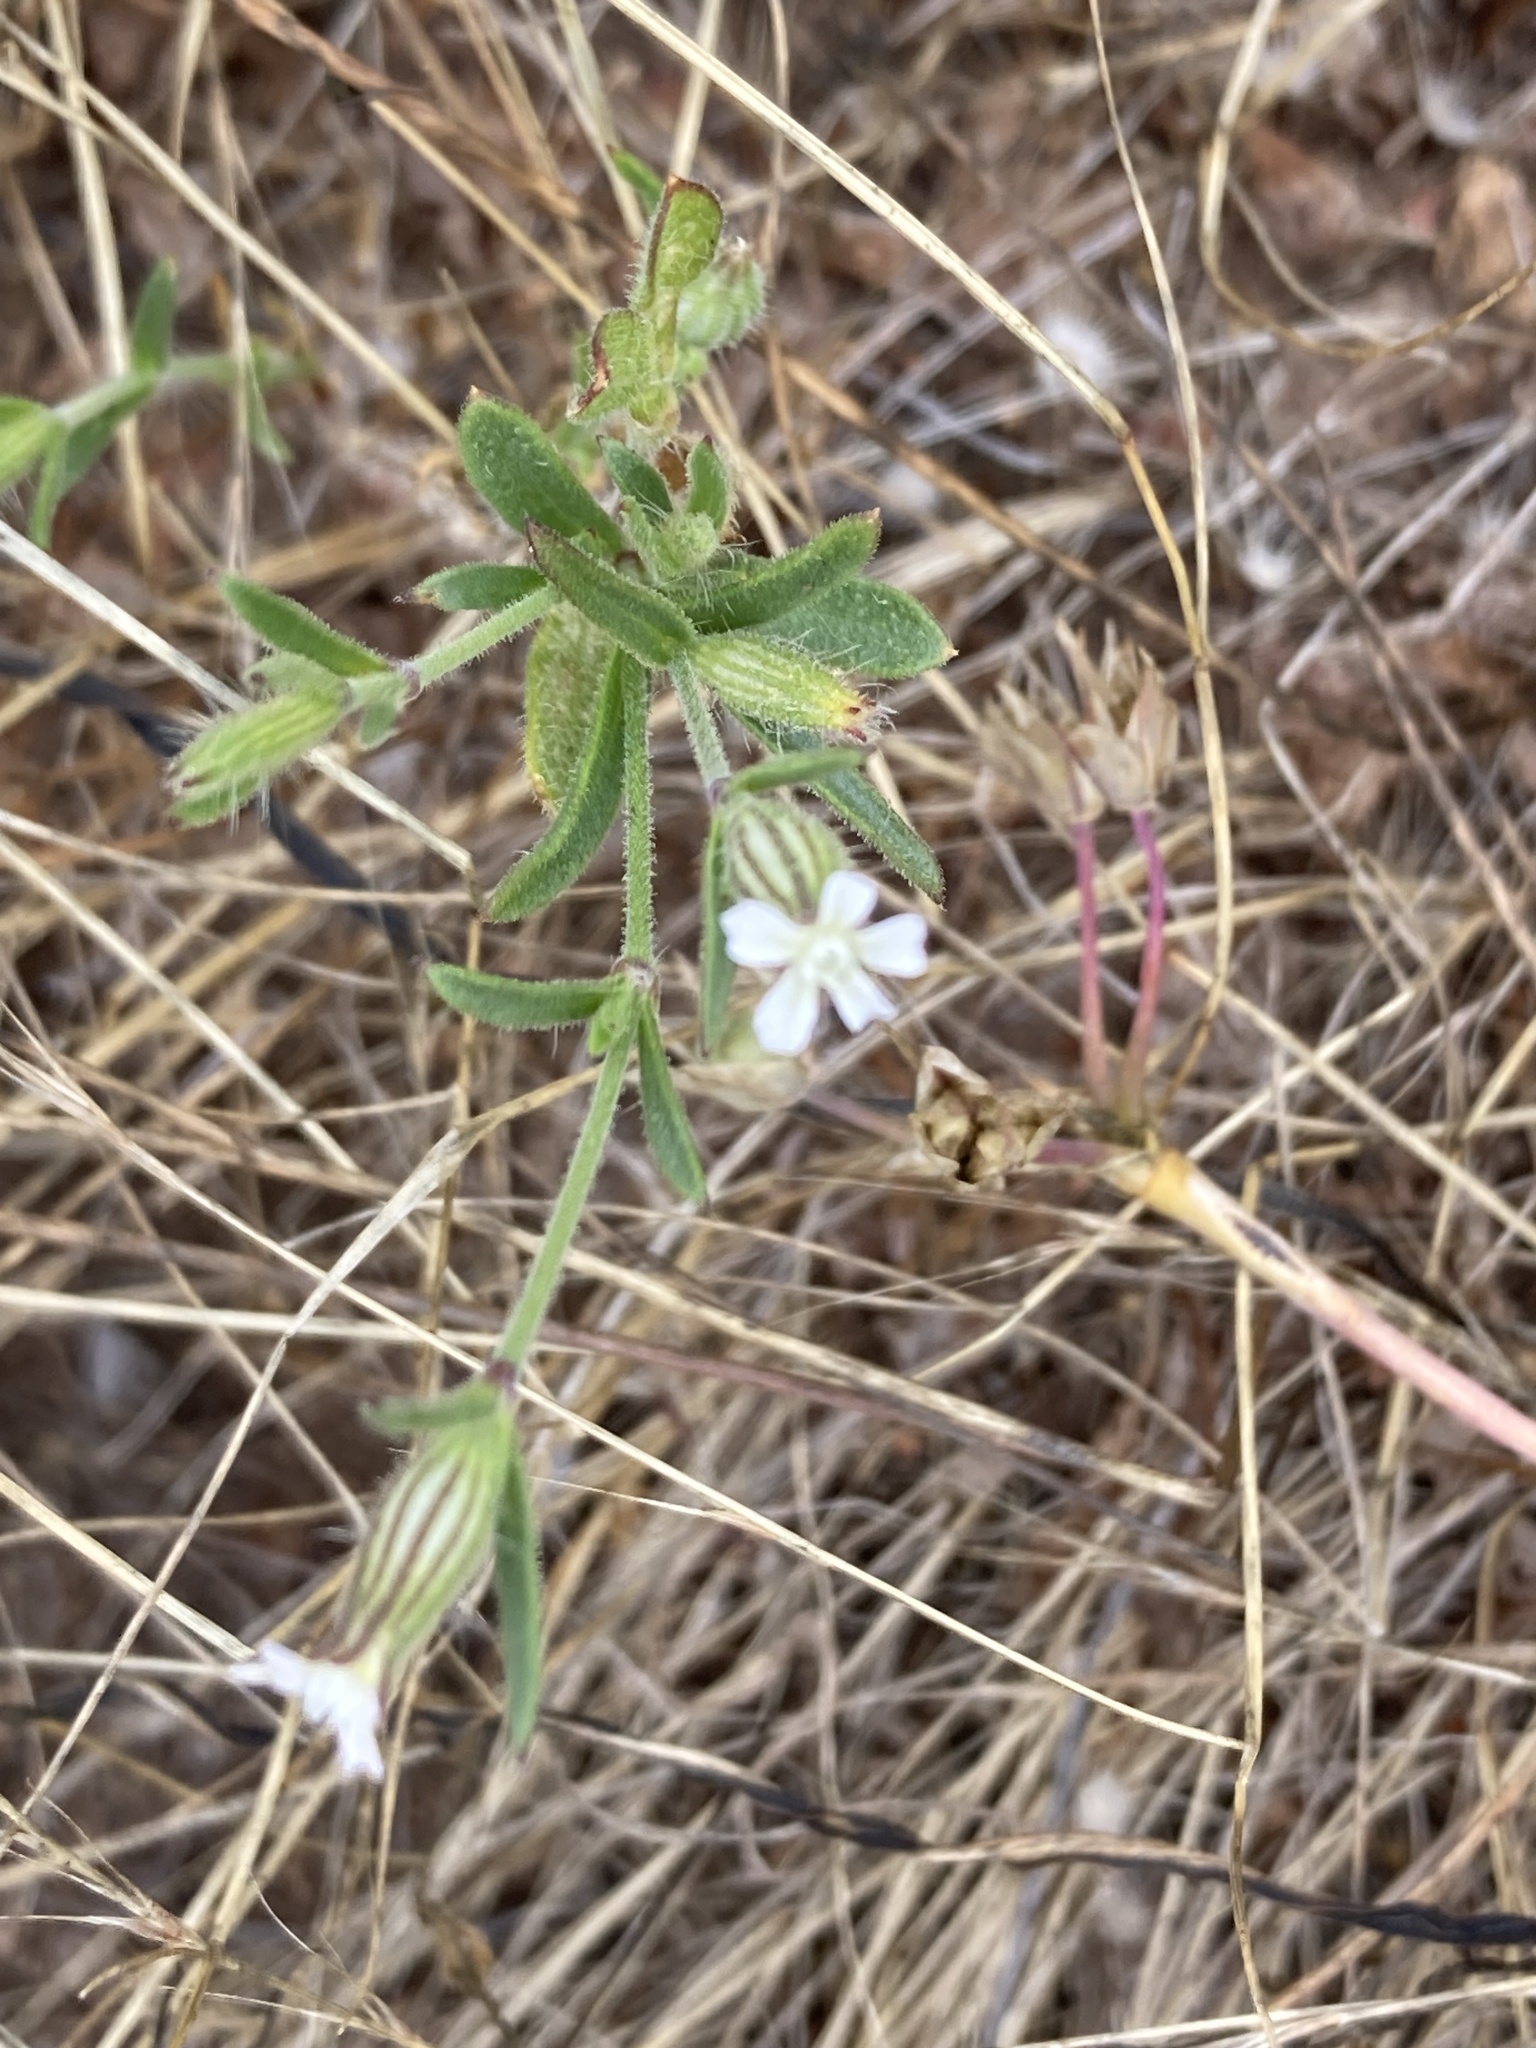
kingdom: Plantae
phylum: Tracheophyta
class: Magnoliopsida
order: Caryophyllales
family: Caryophyllaceae
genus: Silene
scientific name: Silene gallica
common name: Small-flowered catchfly
